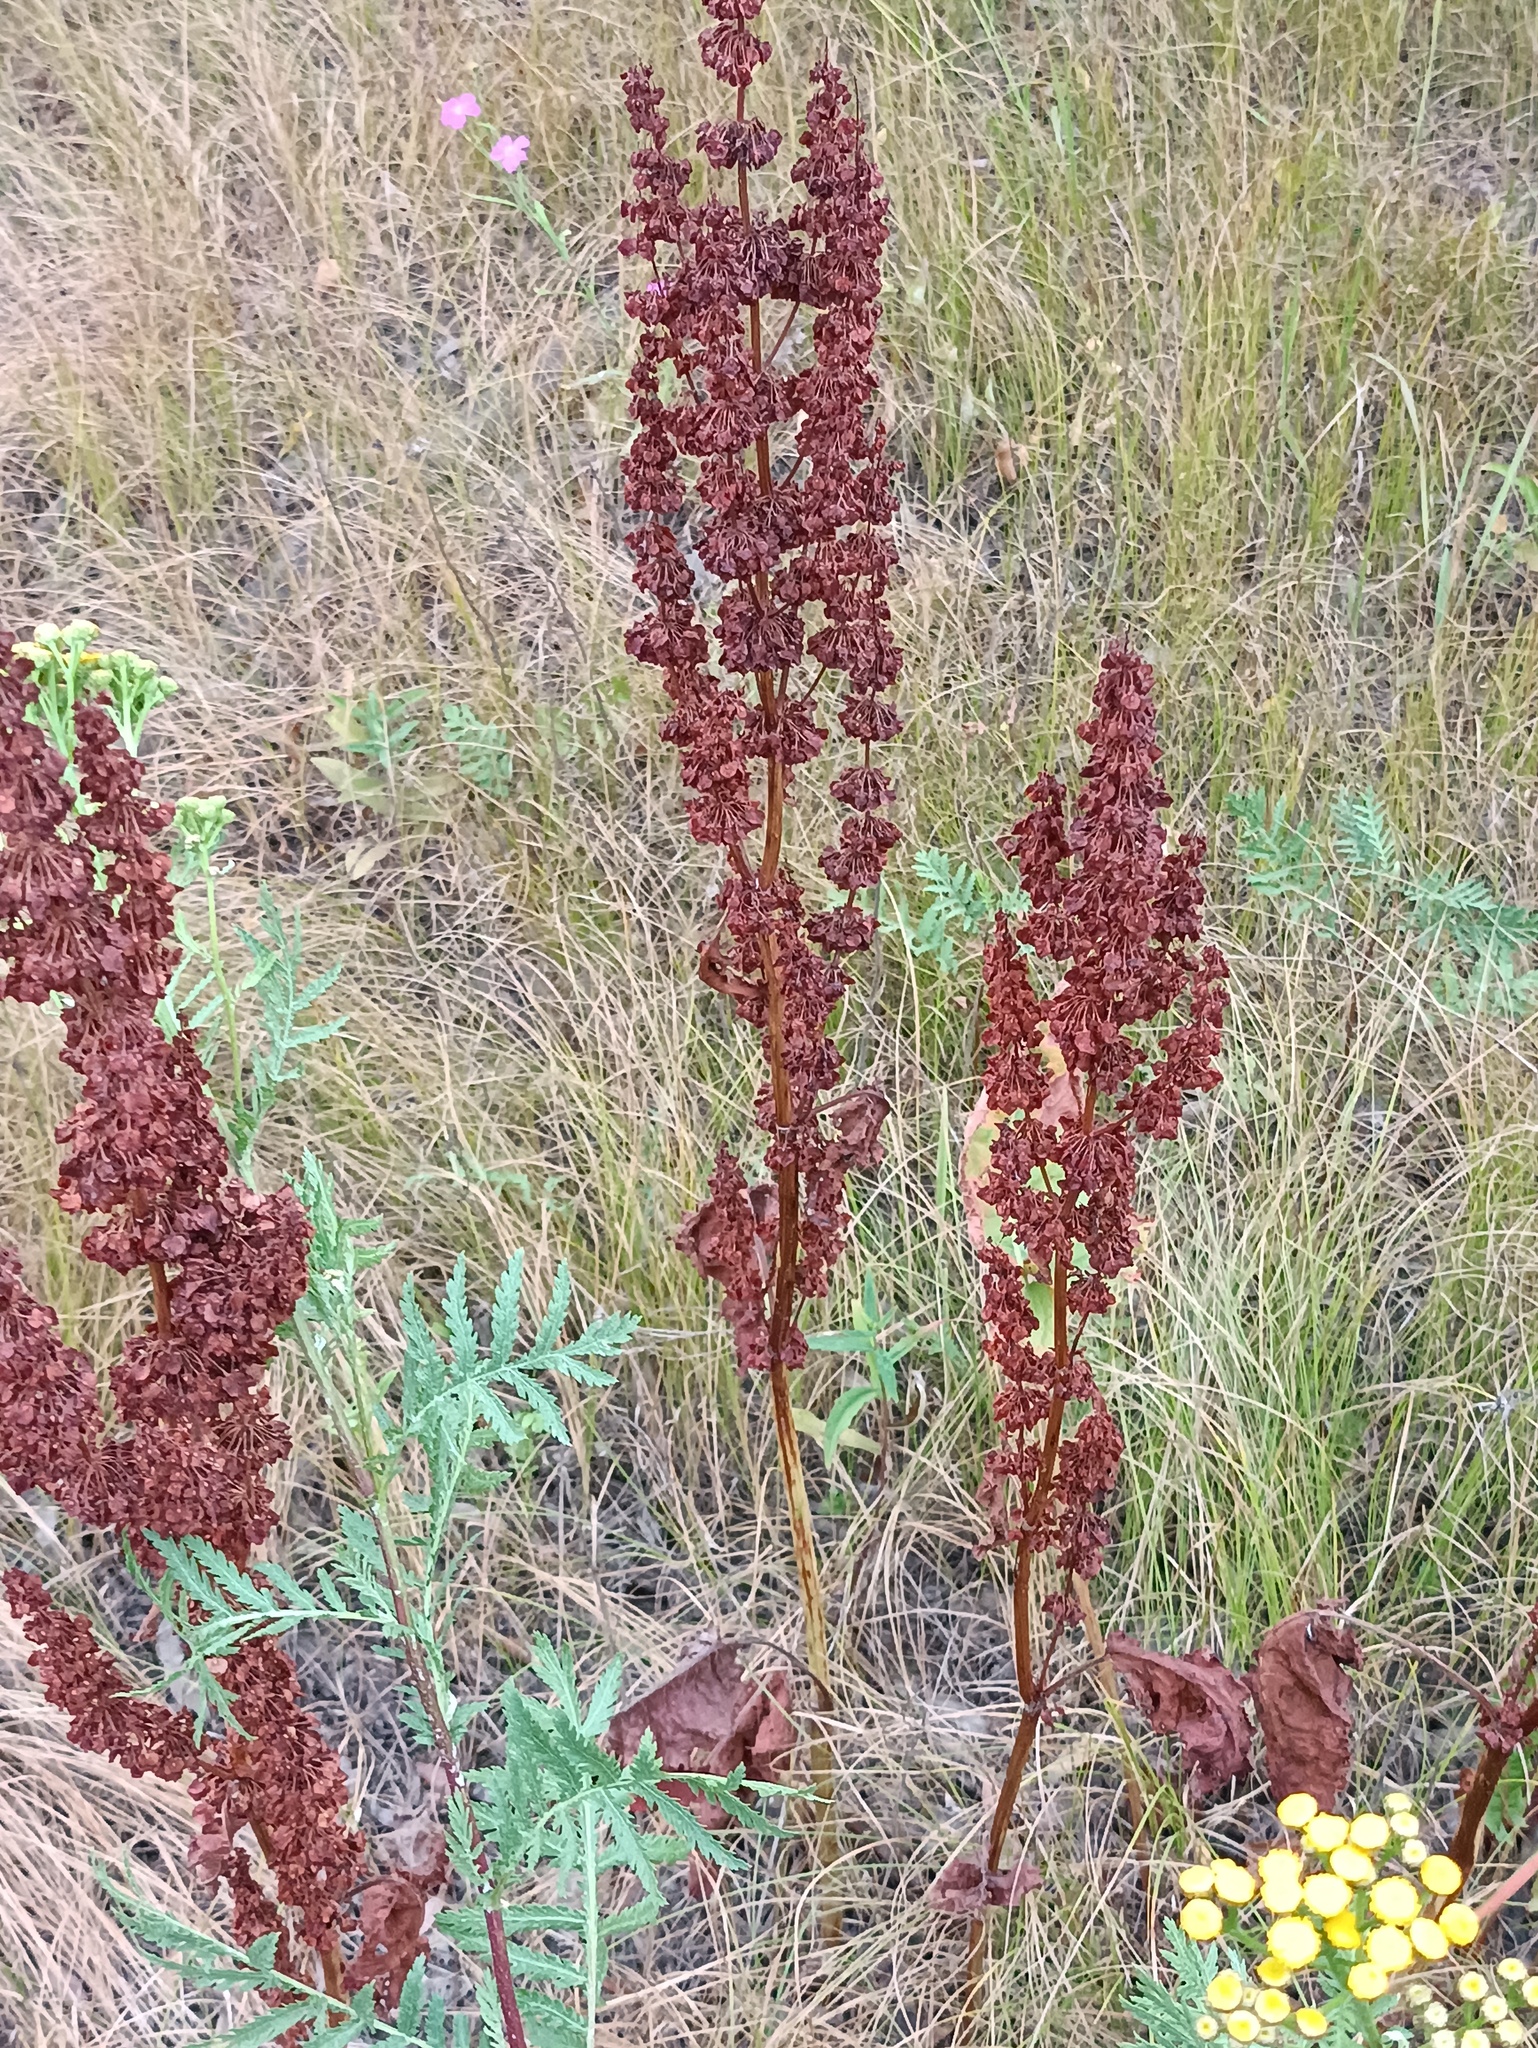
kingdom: Plantae
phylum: Tracheophyta
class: Magnoliopsida
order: Caryophyllales
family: Polygonaceae
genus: Rumex
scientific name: Rumex confertus
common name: Russian dock
